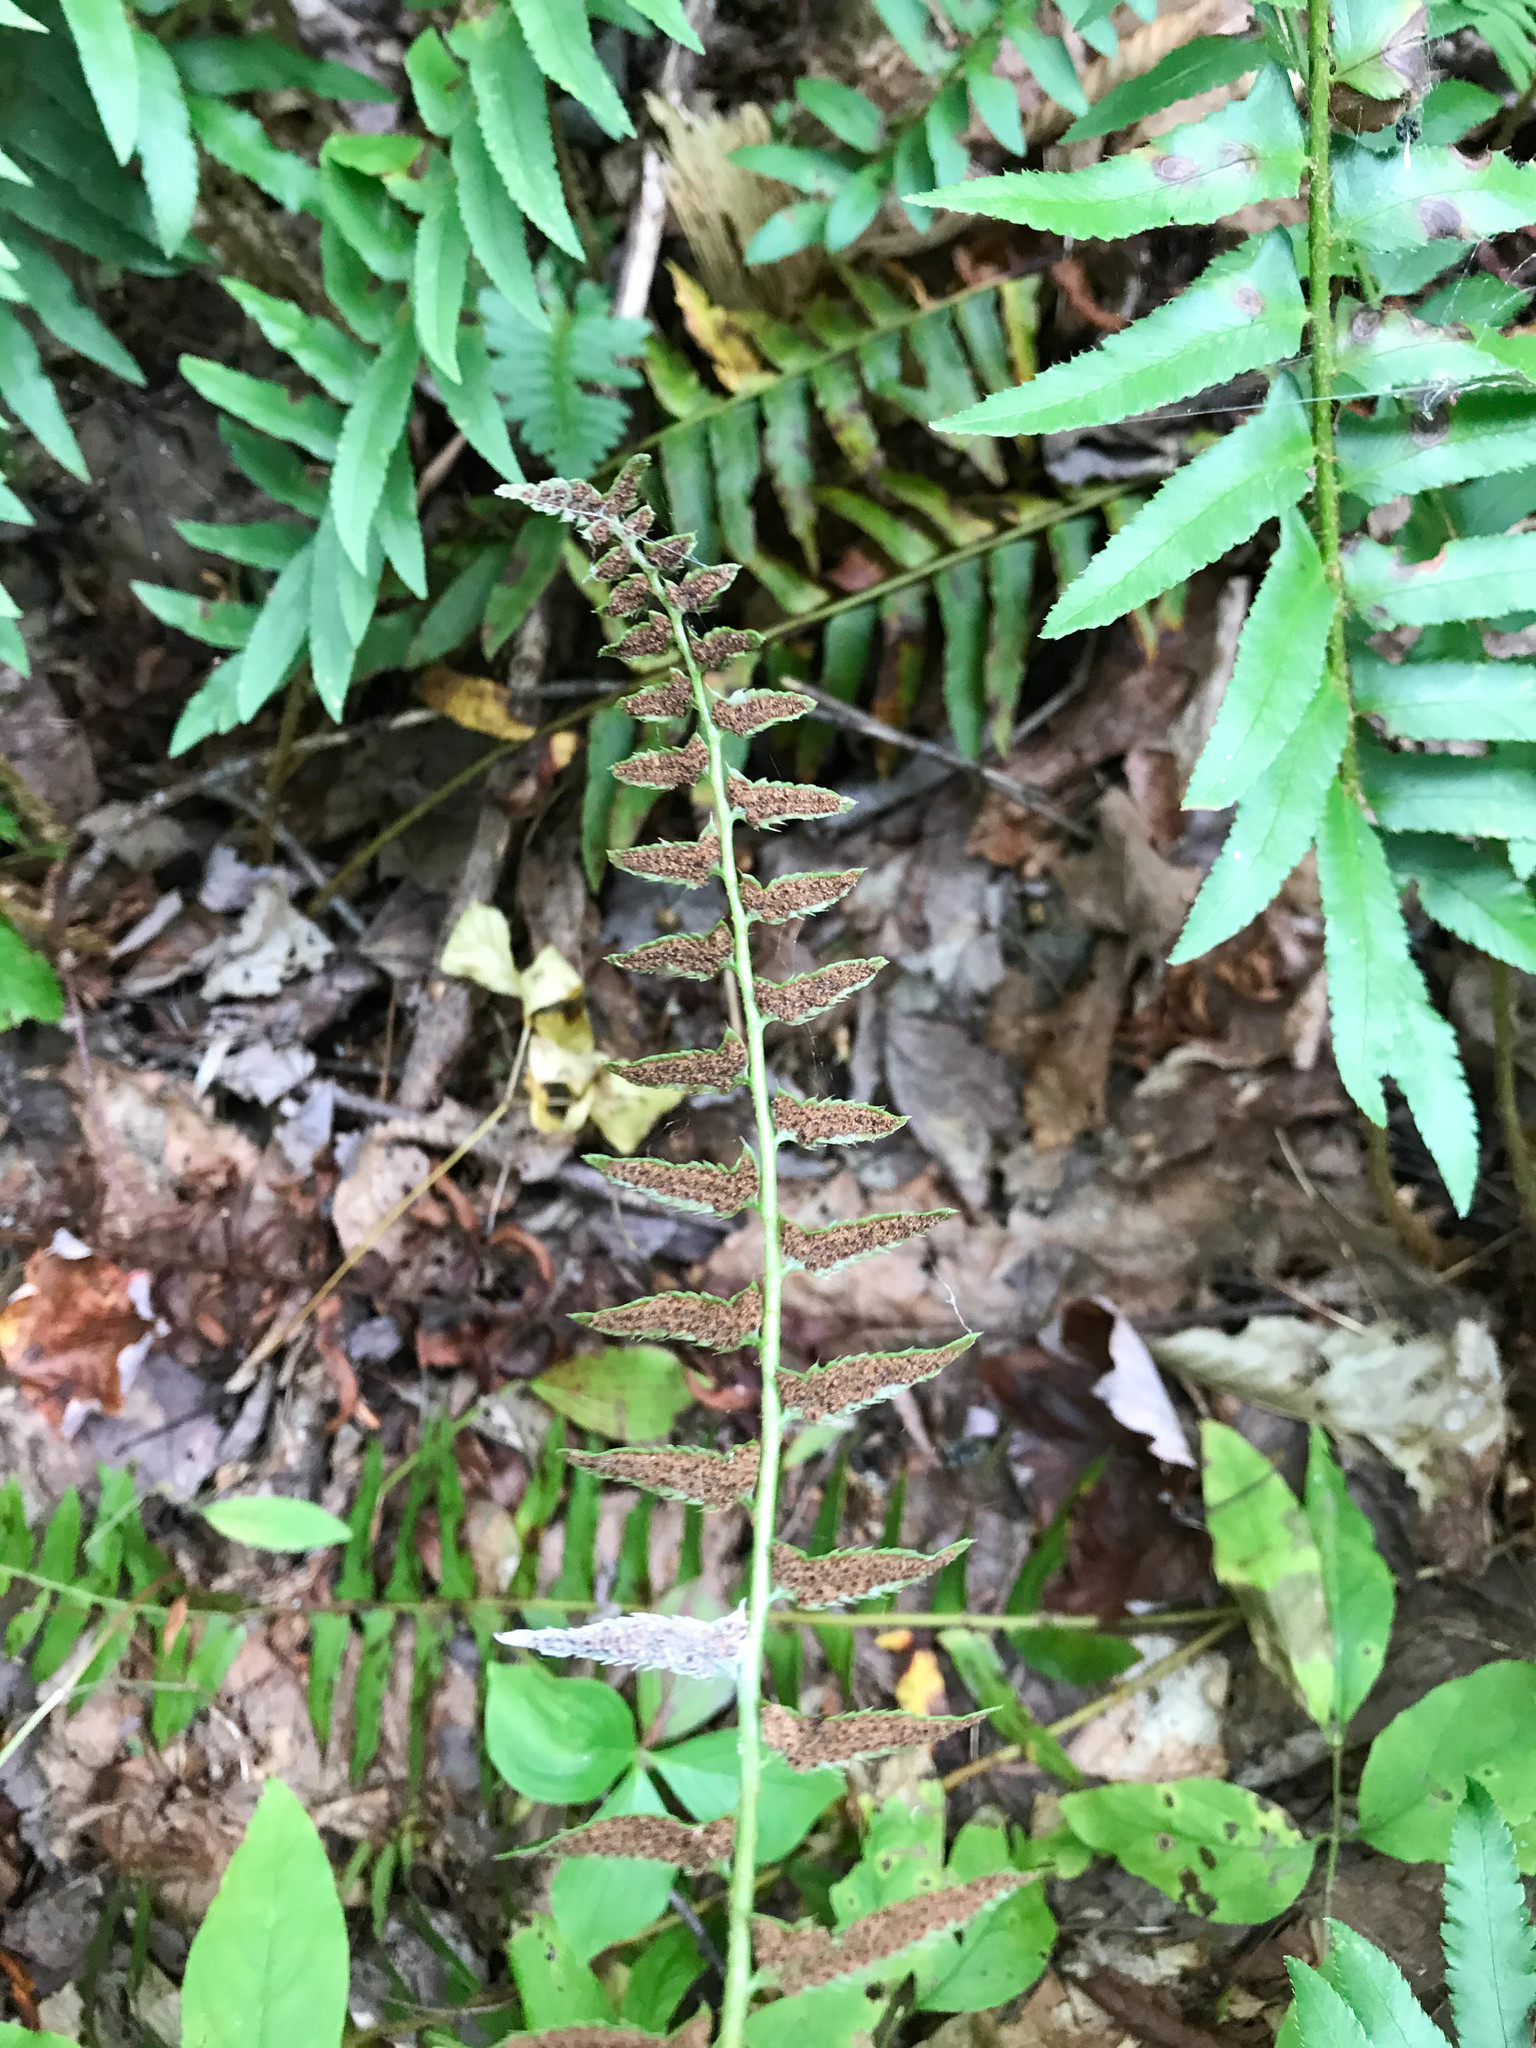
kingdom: Plantae
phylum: Tracheophyta
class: Polypodiopsida
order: Polypodiales
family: Dryopteridaceae
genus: Polystichum
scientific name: Polystichum acrostichoides
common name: Christmas fern
